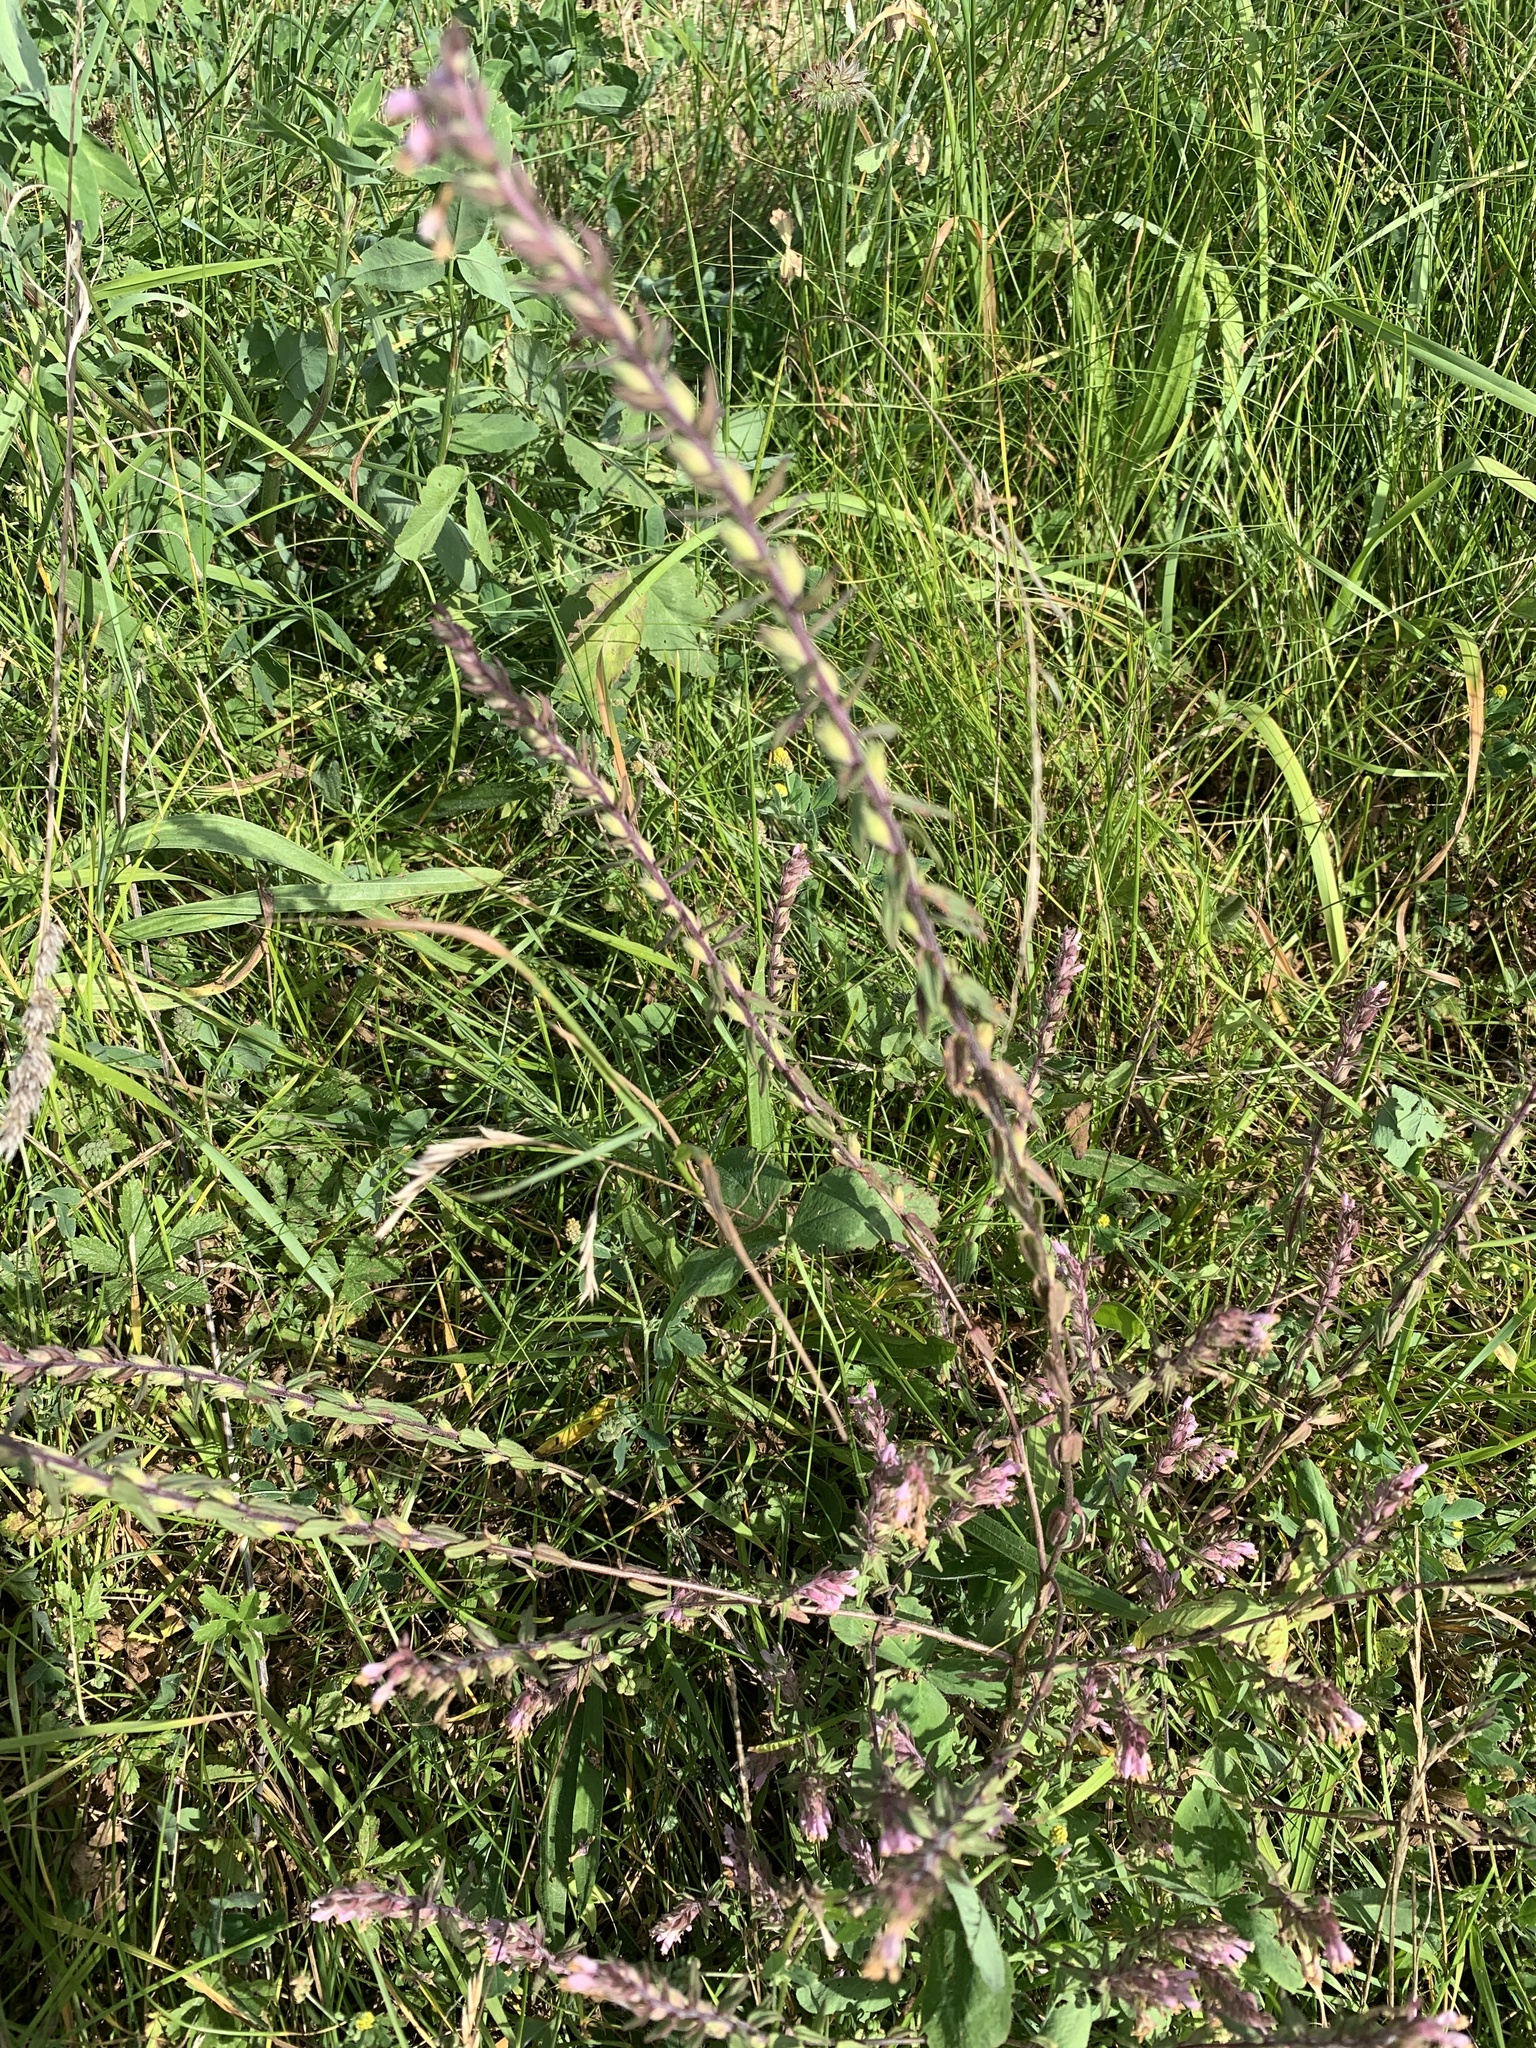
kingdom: Plantae
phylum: Tracheophyta
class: Magnoliopsida
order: Lamiales
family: Orobanchaceae
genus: Odontites
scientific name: Odontites vernus
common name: Red bartsia
